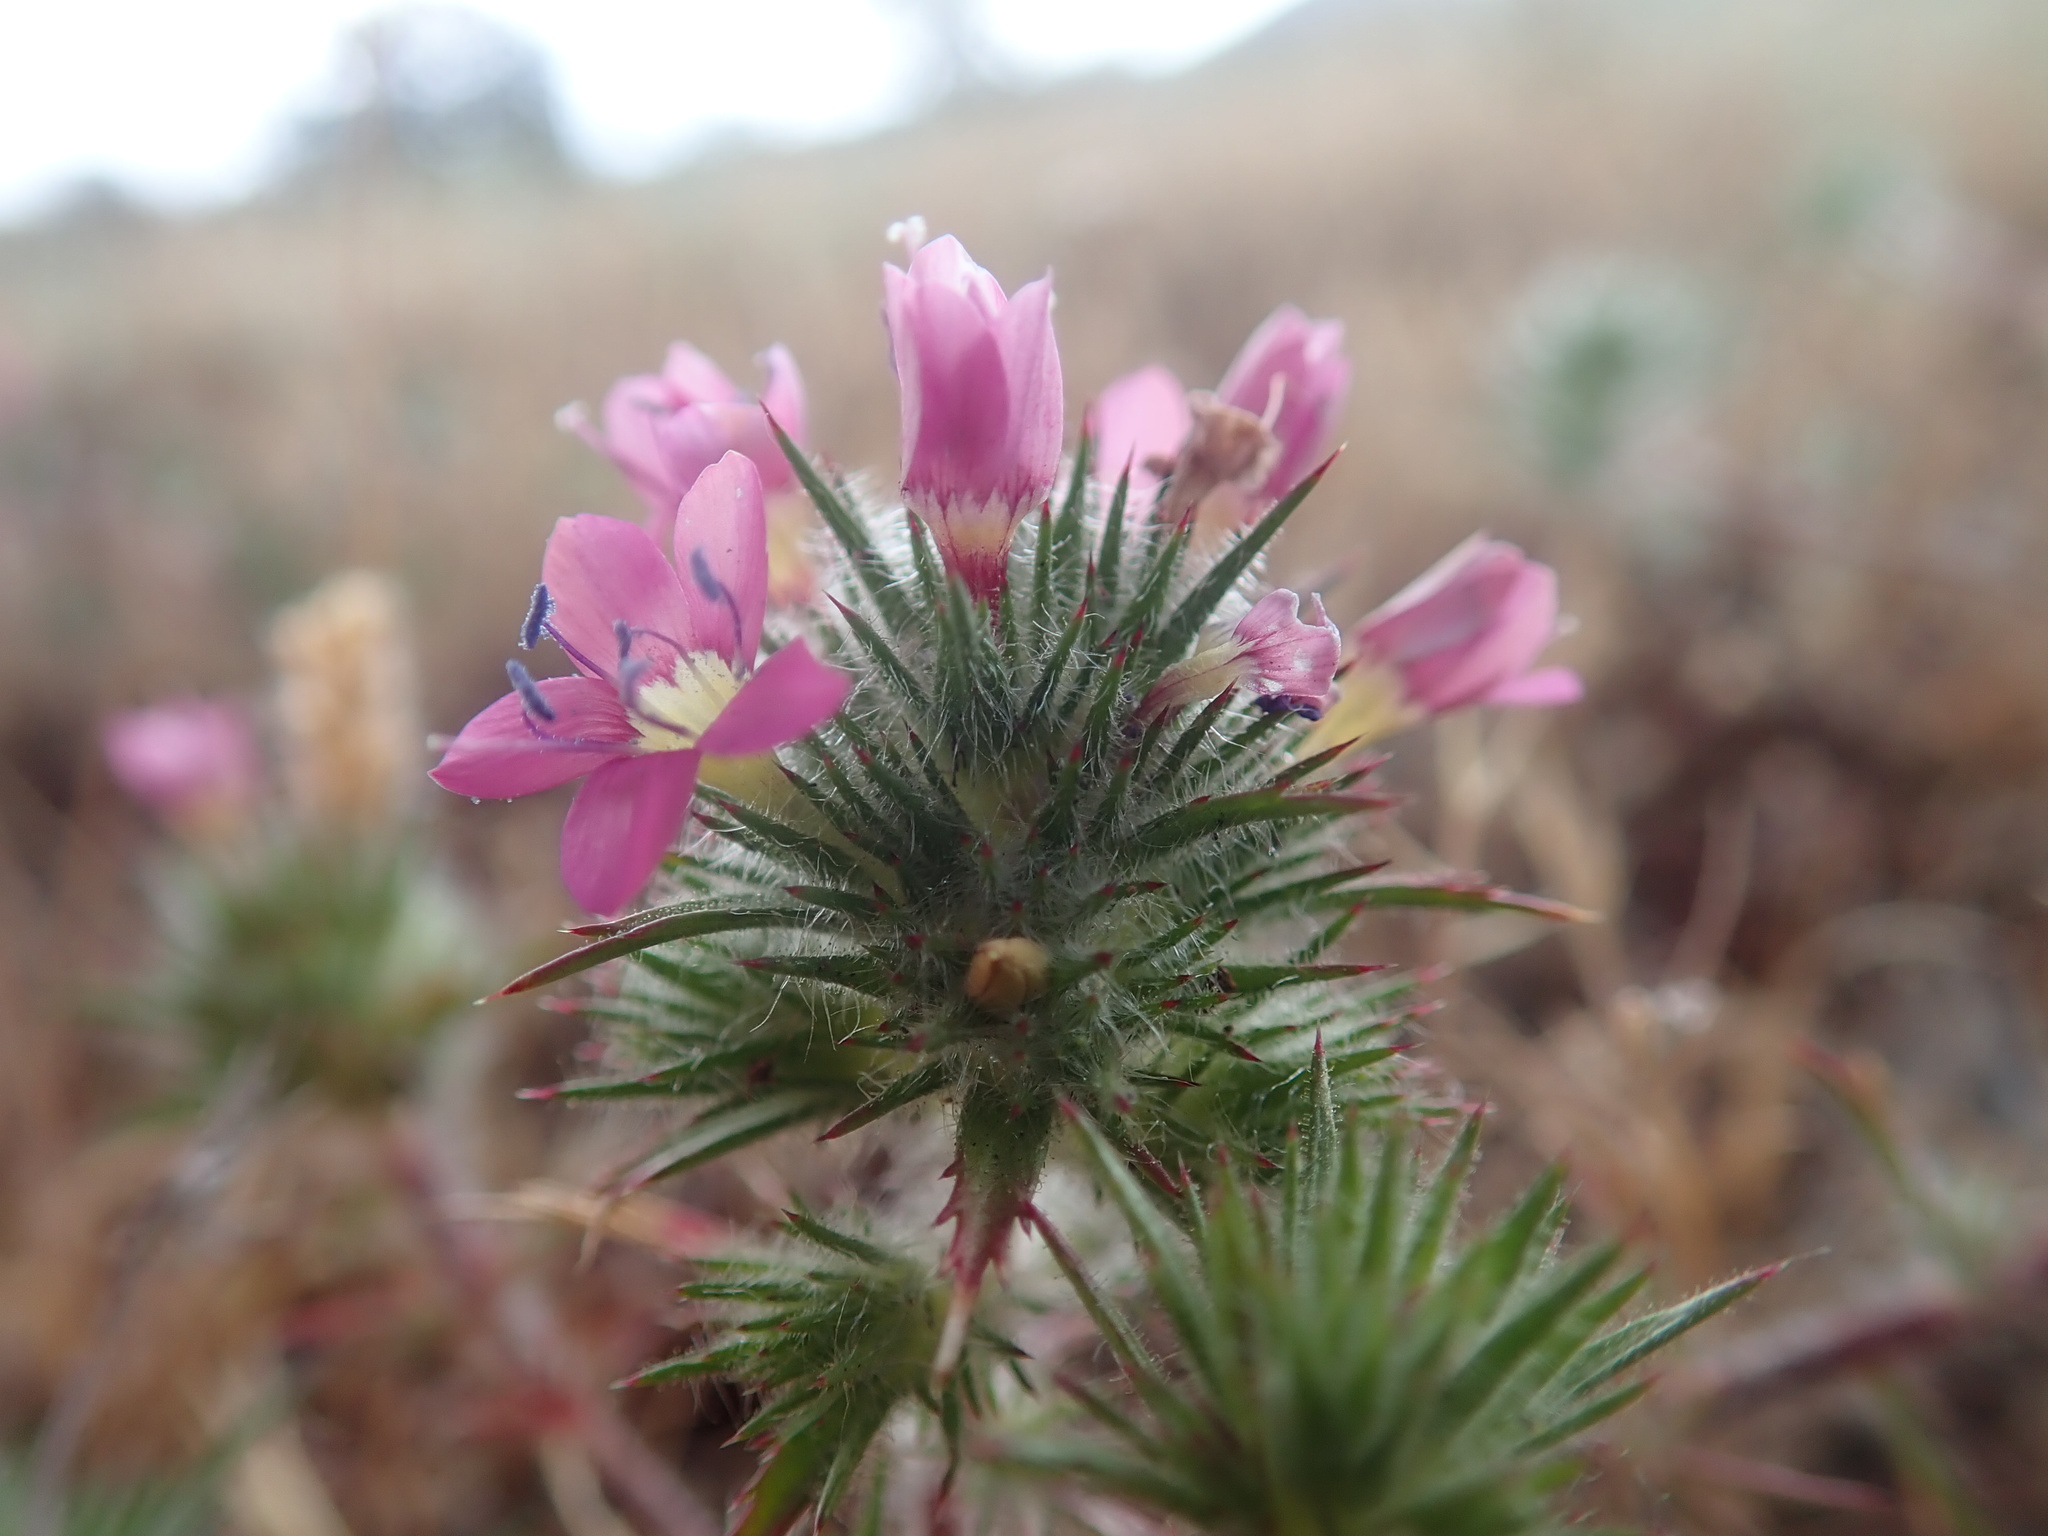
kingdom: Plantae
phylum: Tracheophyta
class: Magnoliopsida
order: Ericales
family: Polemoniaceae
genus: Navarretia
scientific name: Navarretia viscidula
